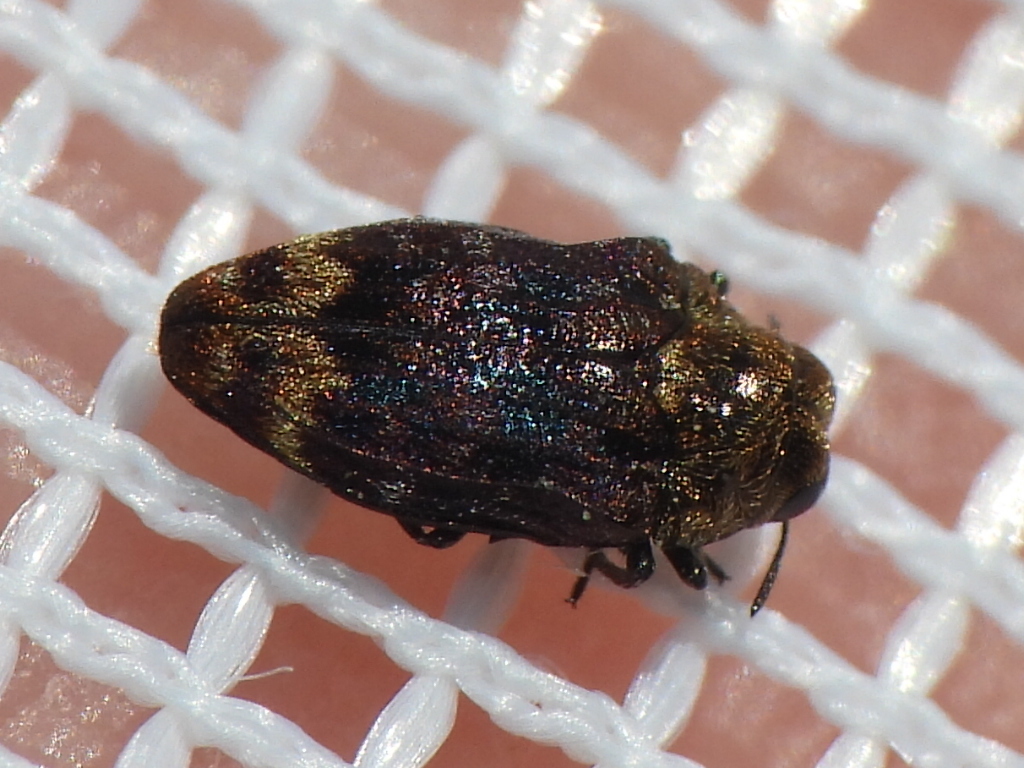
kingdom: Animalia
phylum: Arthropoda
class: Insecta
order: Coleoptera
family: Buprestidae
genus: Brachys
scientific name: Brachys aerosus
